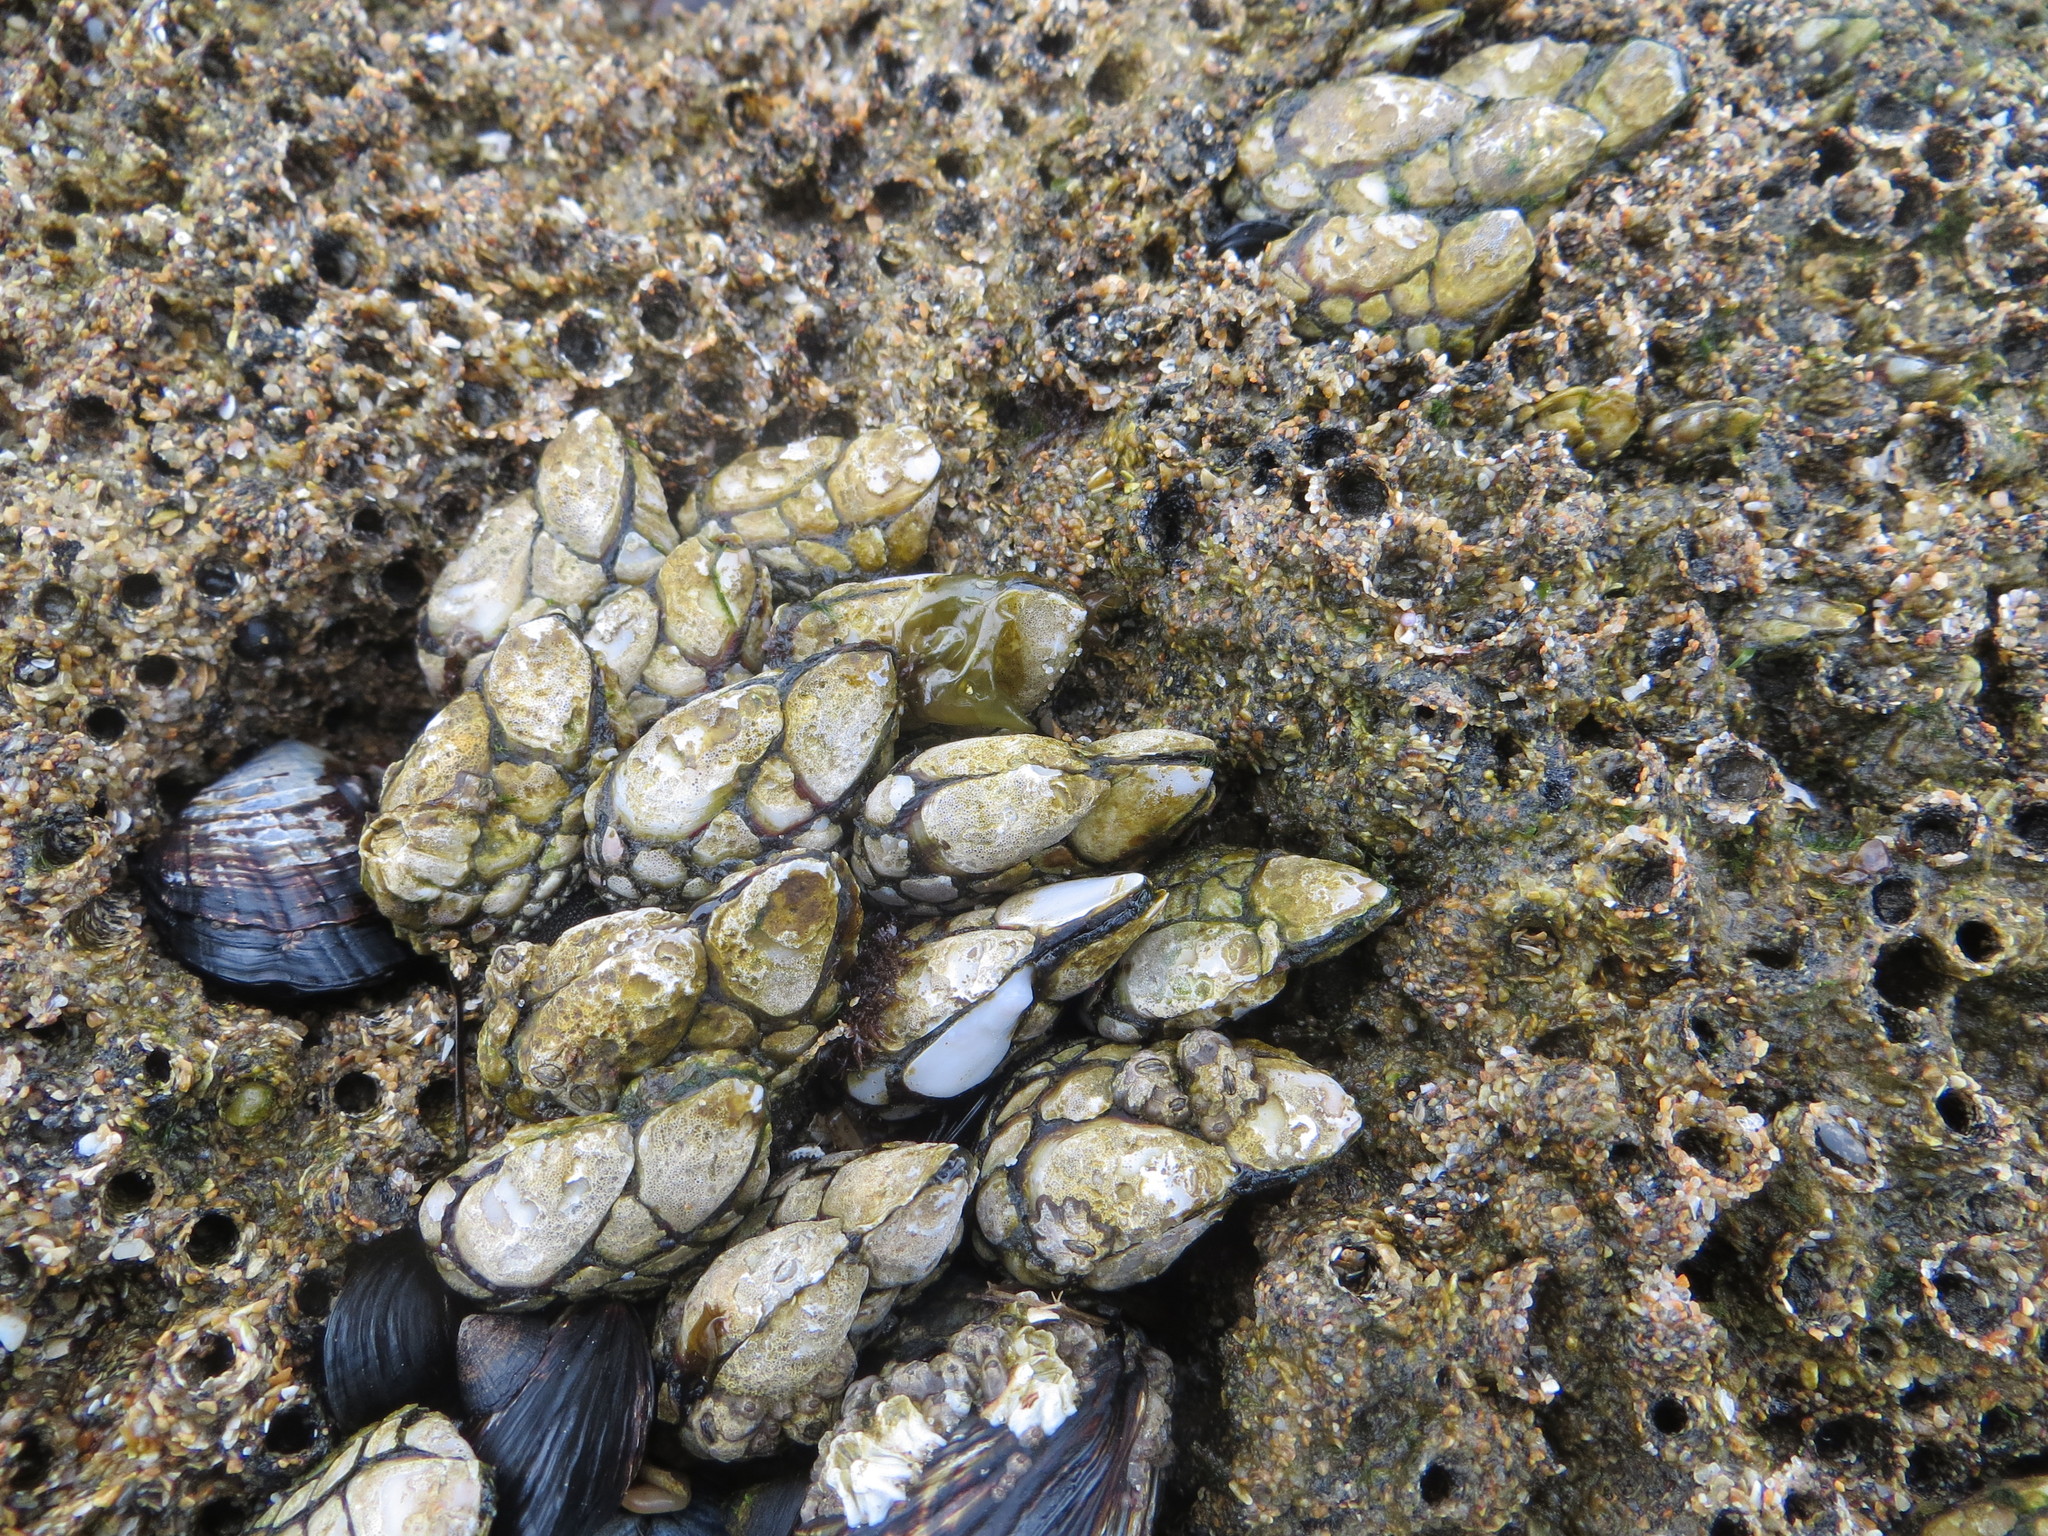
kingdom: Animalia
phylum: Arthropoda
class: Maxillopoda
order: Pedunculata
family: Pollicipedidae
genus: Pollicipes
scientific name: Pollicipes polymerus
